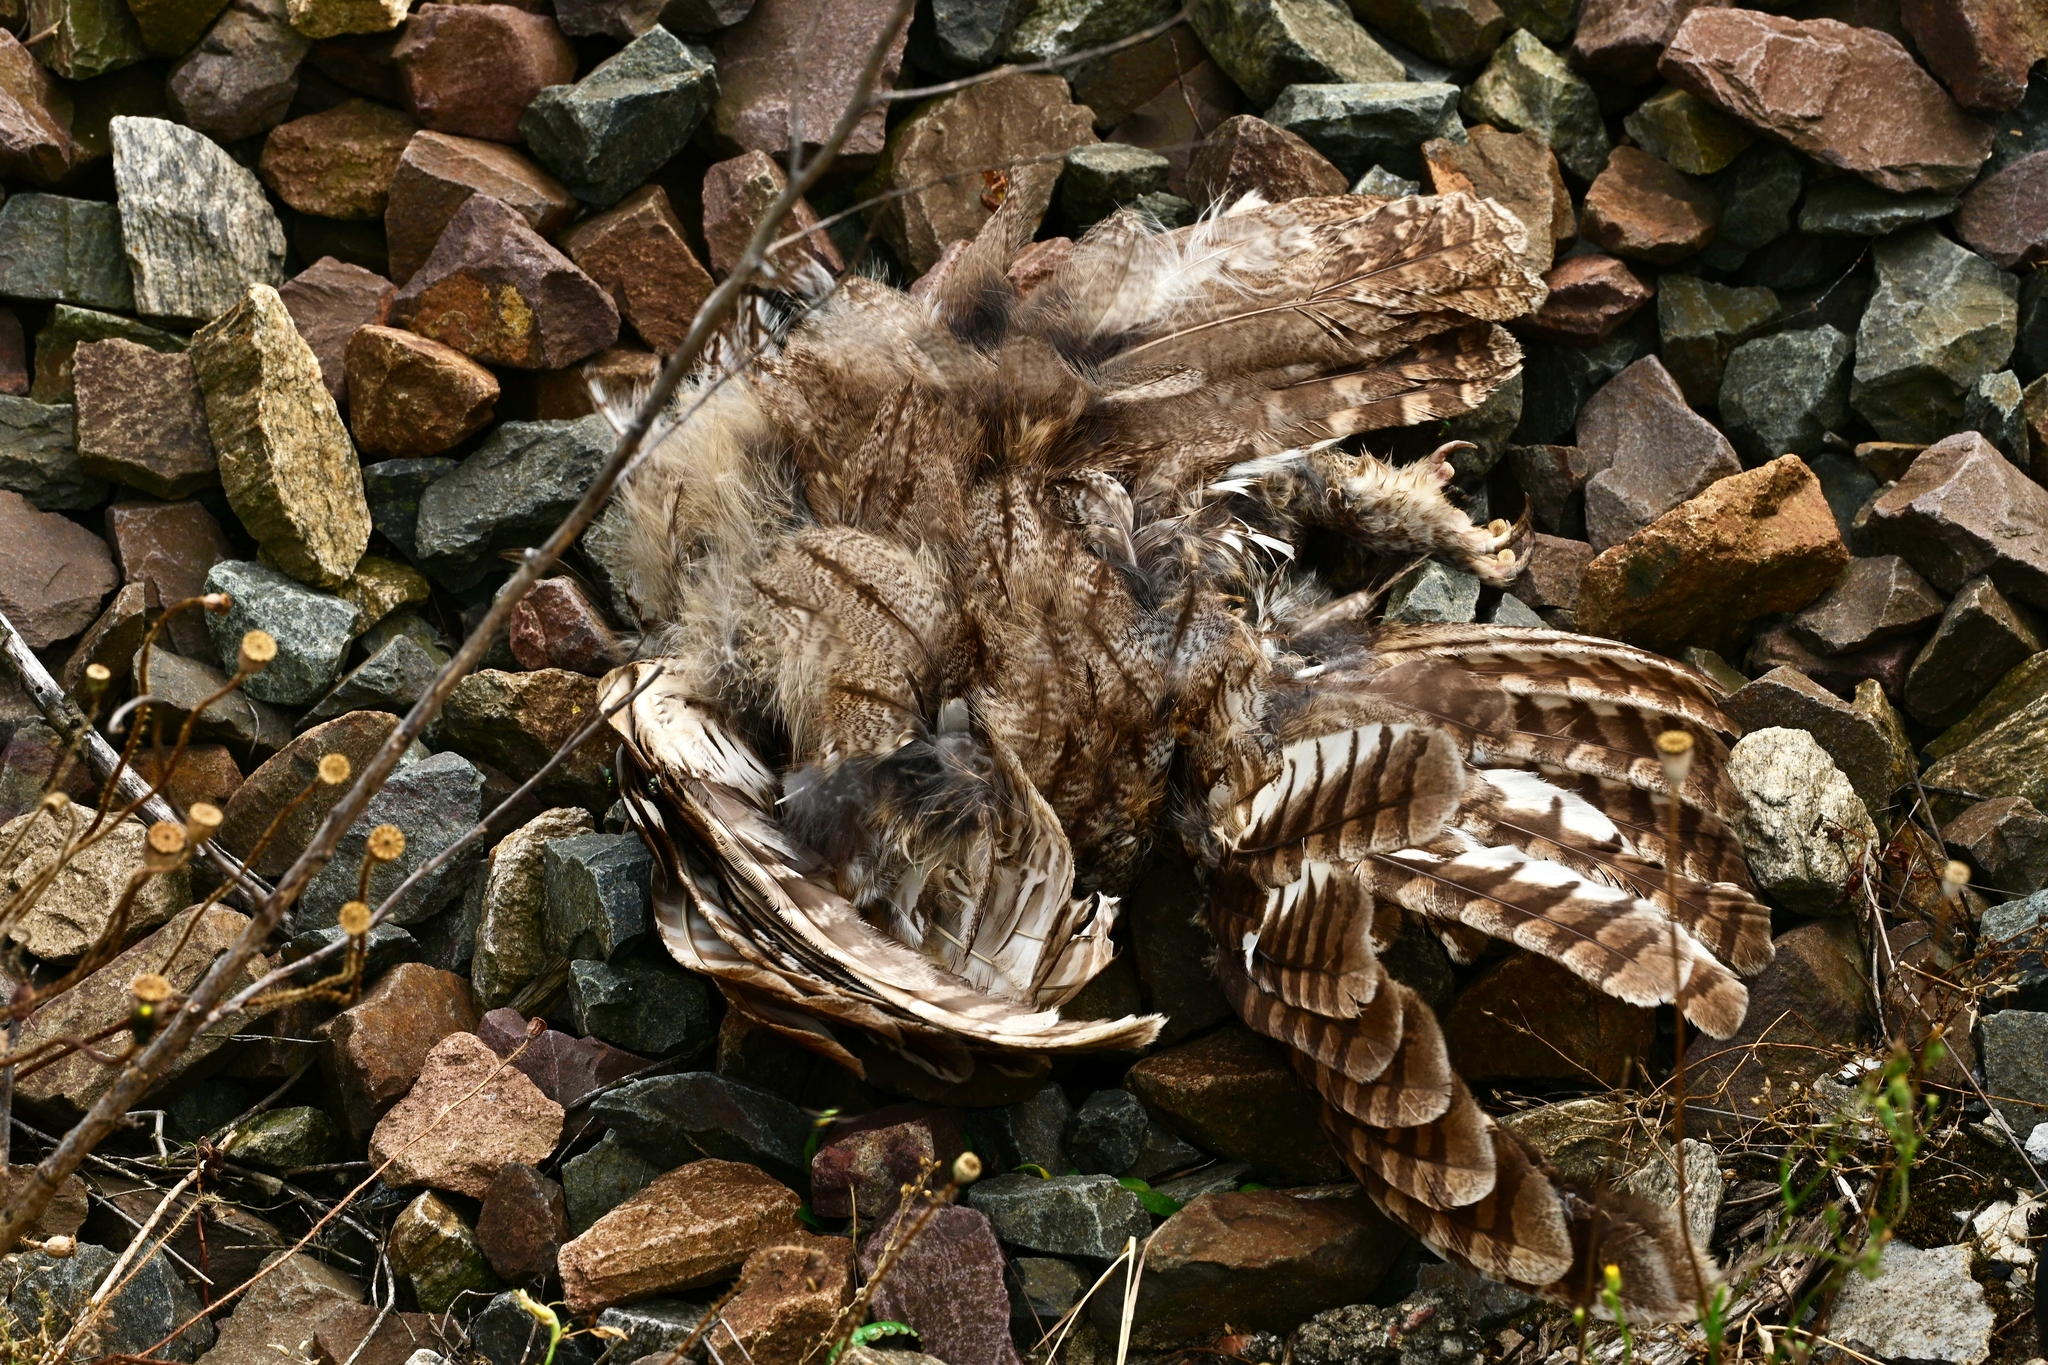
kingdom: Animalia
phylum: Chordata
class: Aves
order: Strigiformes
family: Strigidae
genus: Strix
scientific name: Strix aluco
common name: Tawny owl
